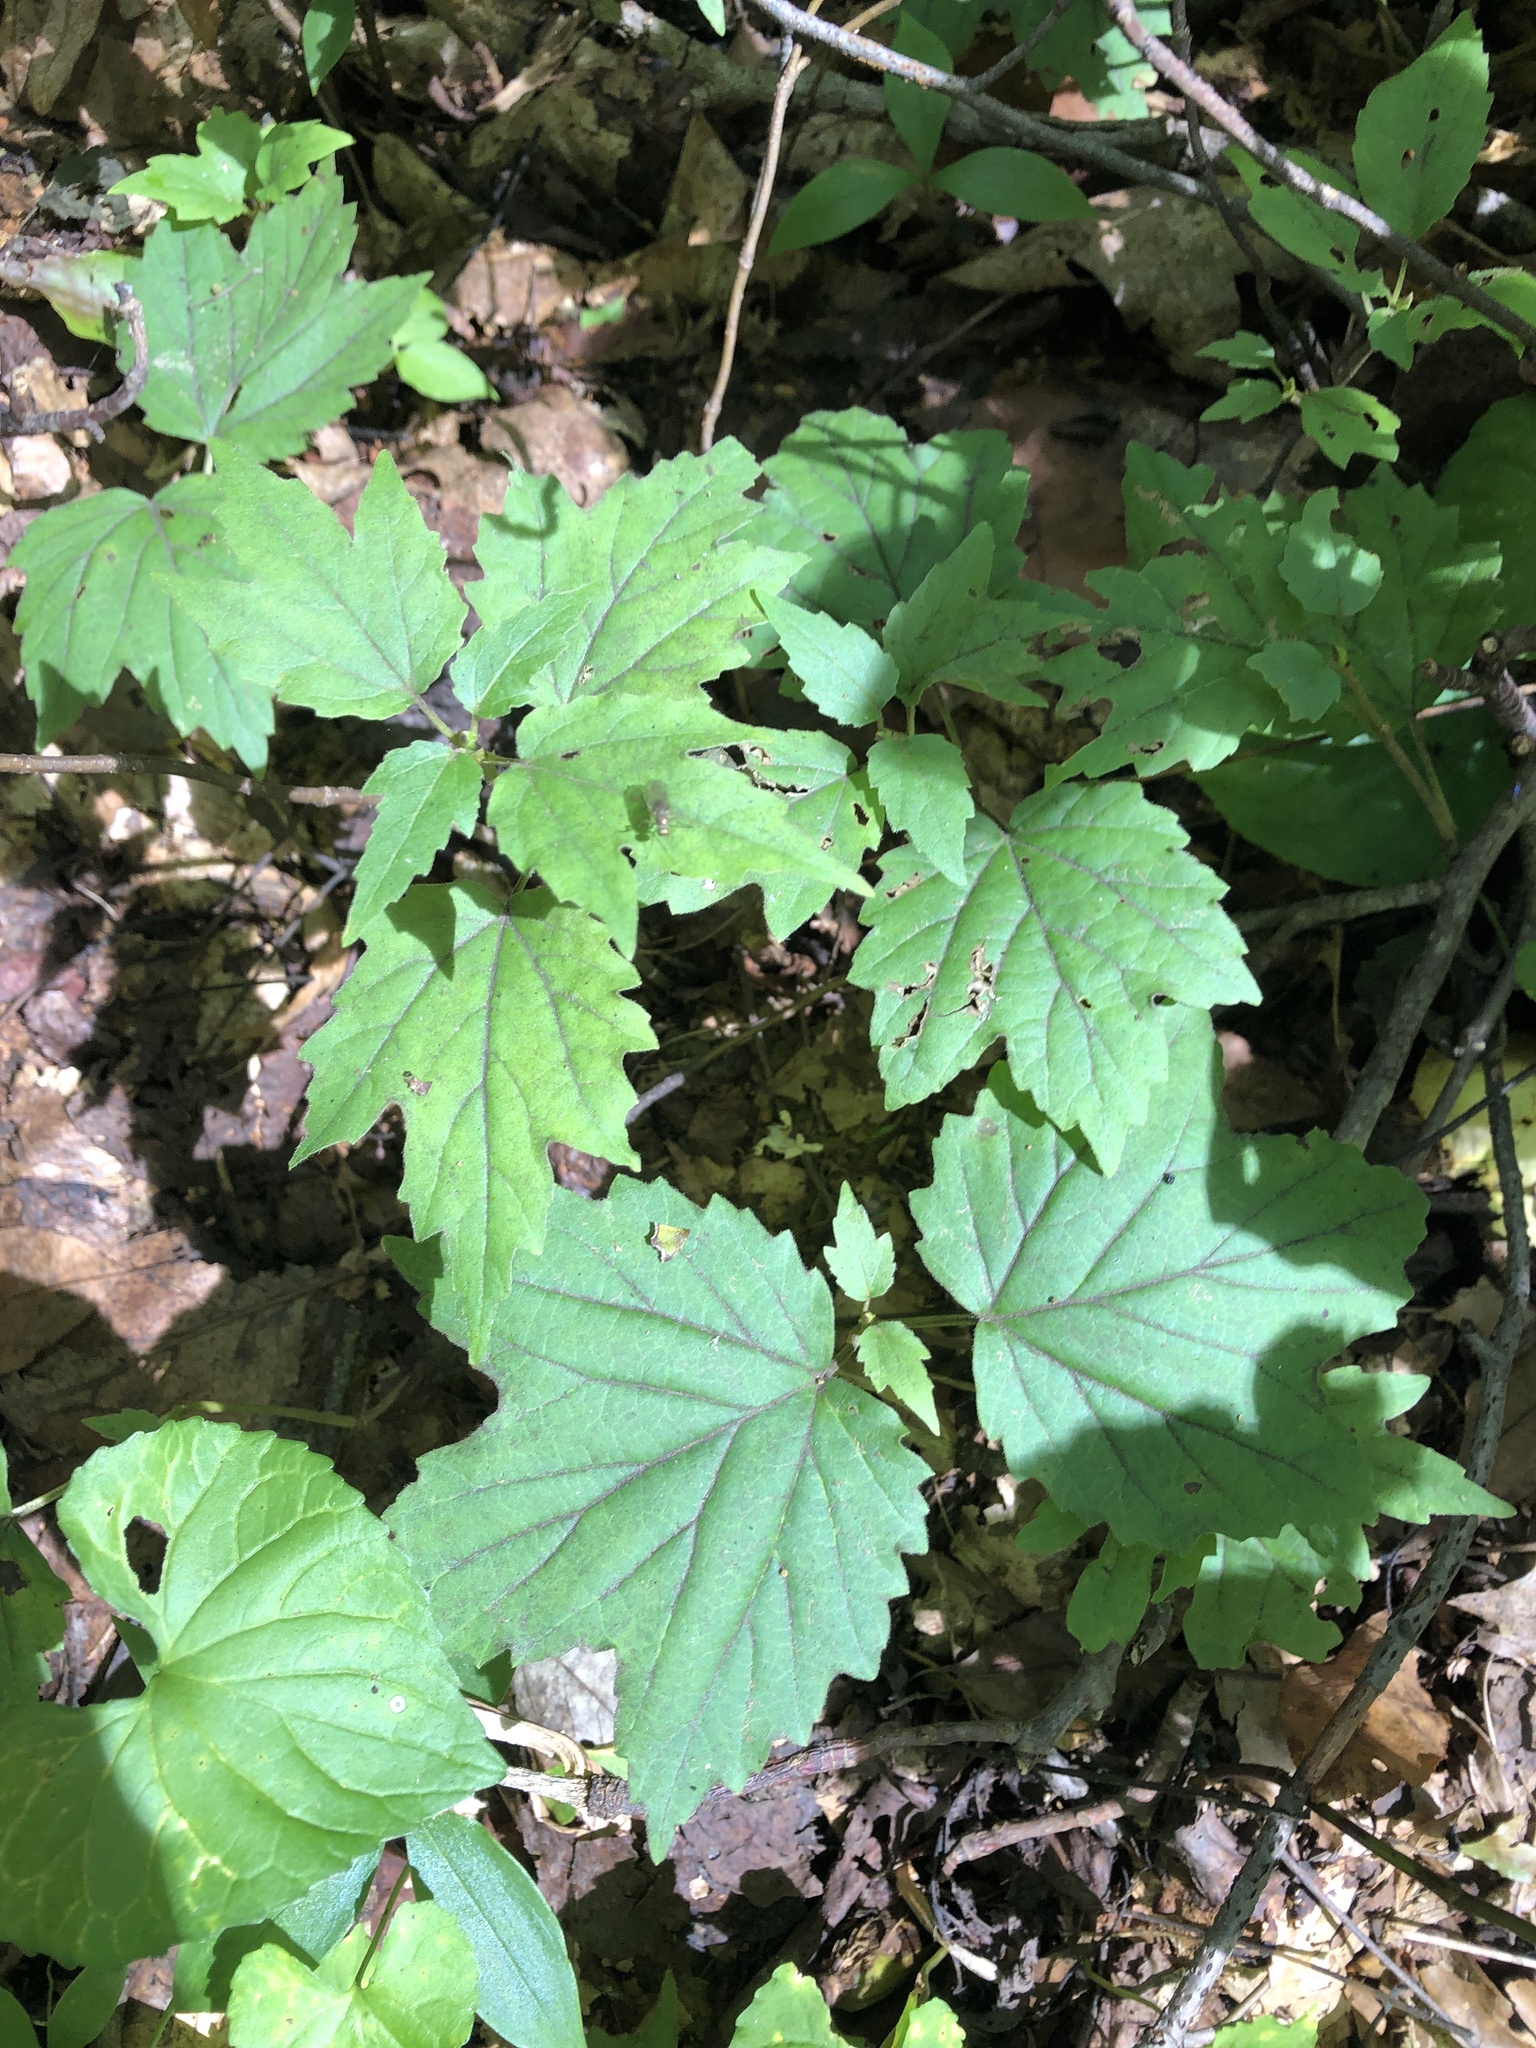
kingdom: Plantae
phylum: Tracheophyta
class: Magnoliopsida
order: Dipsacales
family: Viburnaceae
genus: Viburnum
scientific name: Viburnum acerifolium
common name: Dockmackie
